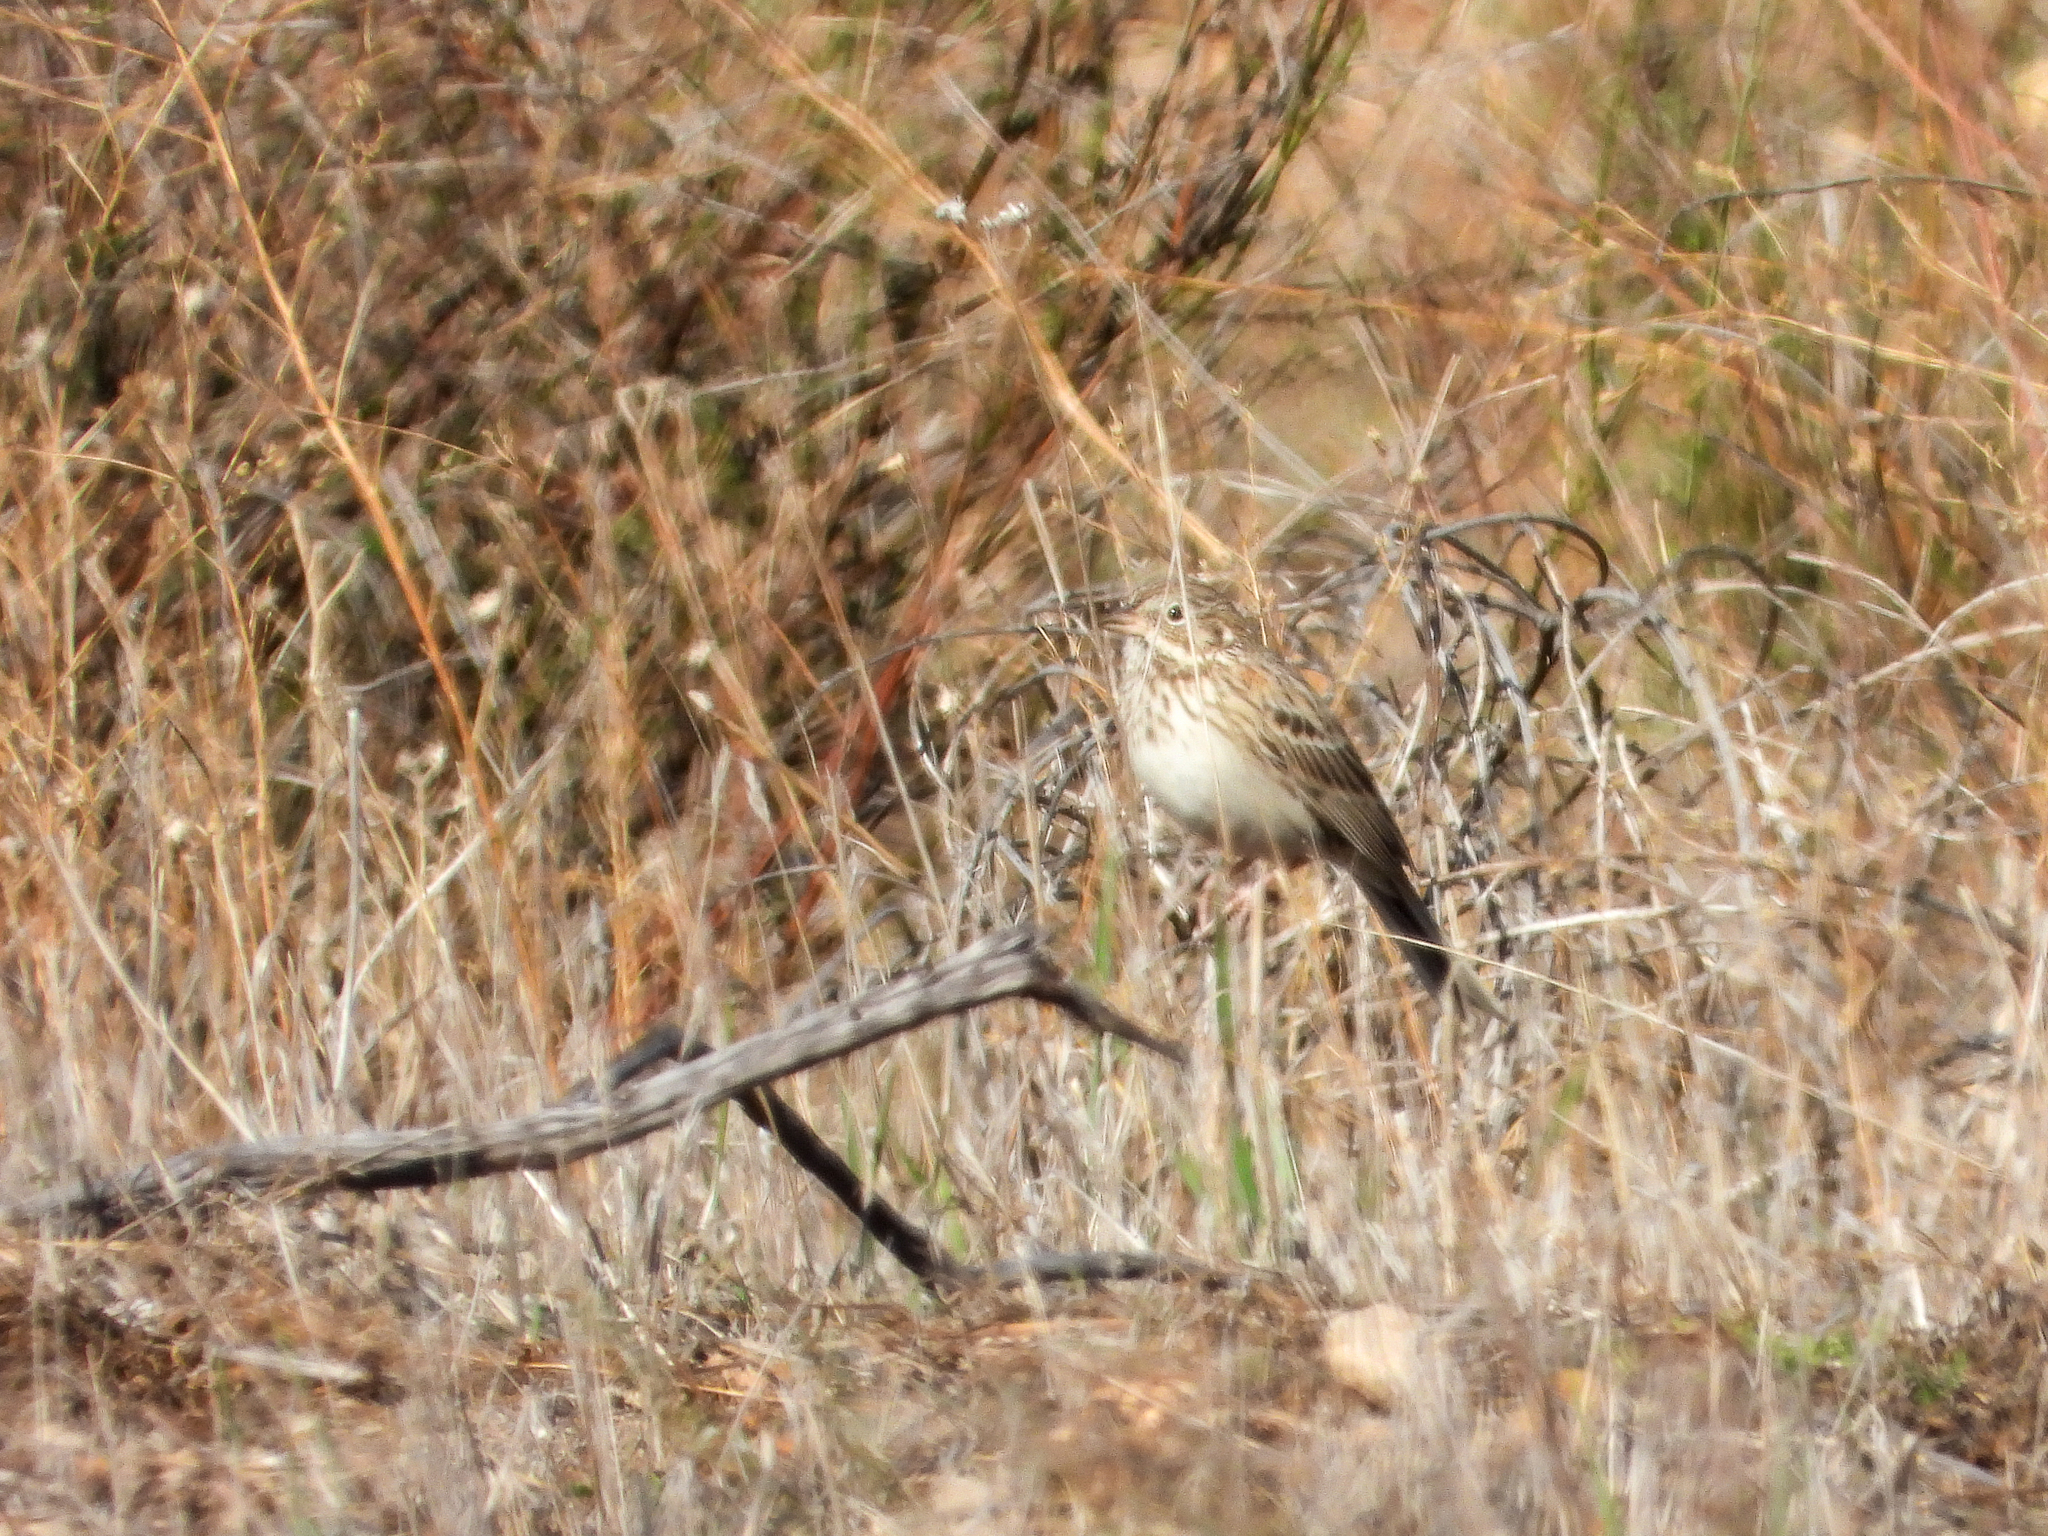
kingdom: Animalia
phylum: Chordata
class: Aves
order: Passeriformes
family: Passerellidae
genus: Pooecetes
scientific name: Pooecetes gramineus
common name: Vesper sparrow
